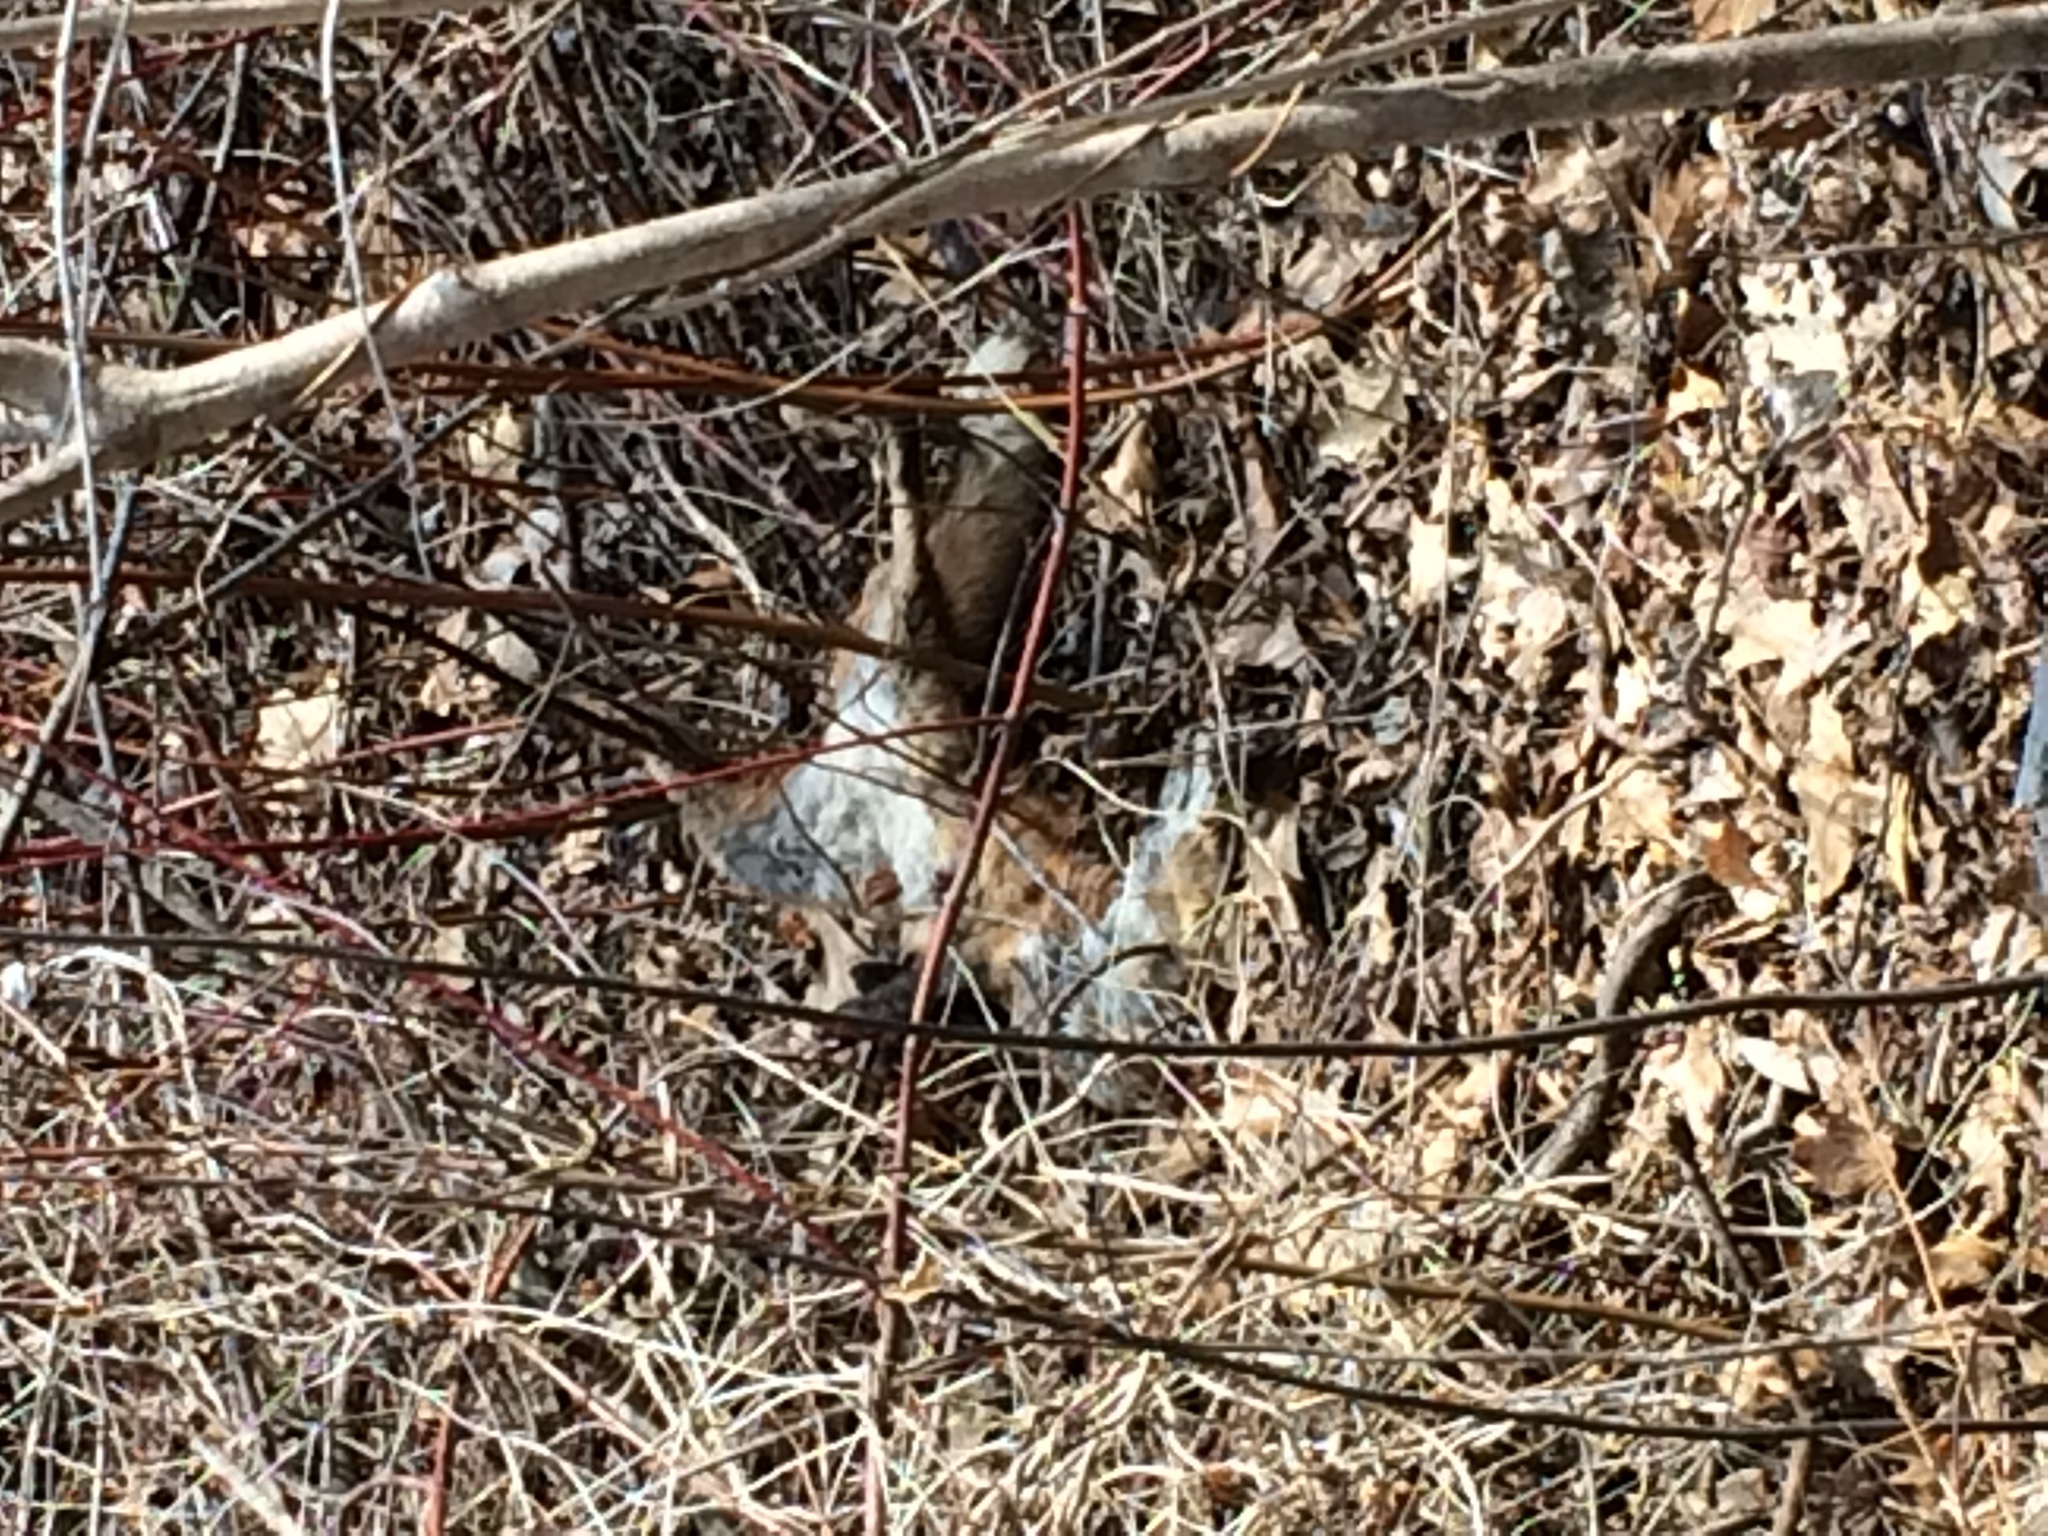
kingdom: Animalia
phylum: Chordata
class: Mammalia
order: Carnivora
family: Canidae
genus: Vulpes
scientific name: Vulpes vulpes
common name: Red fox
